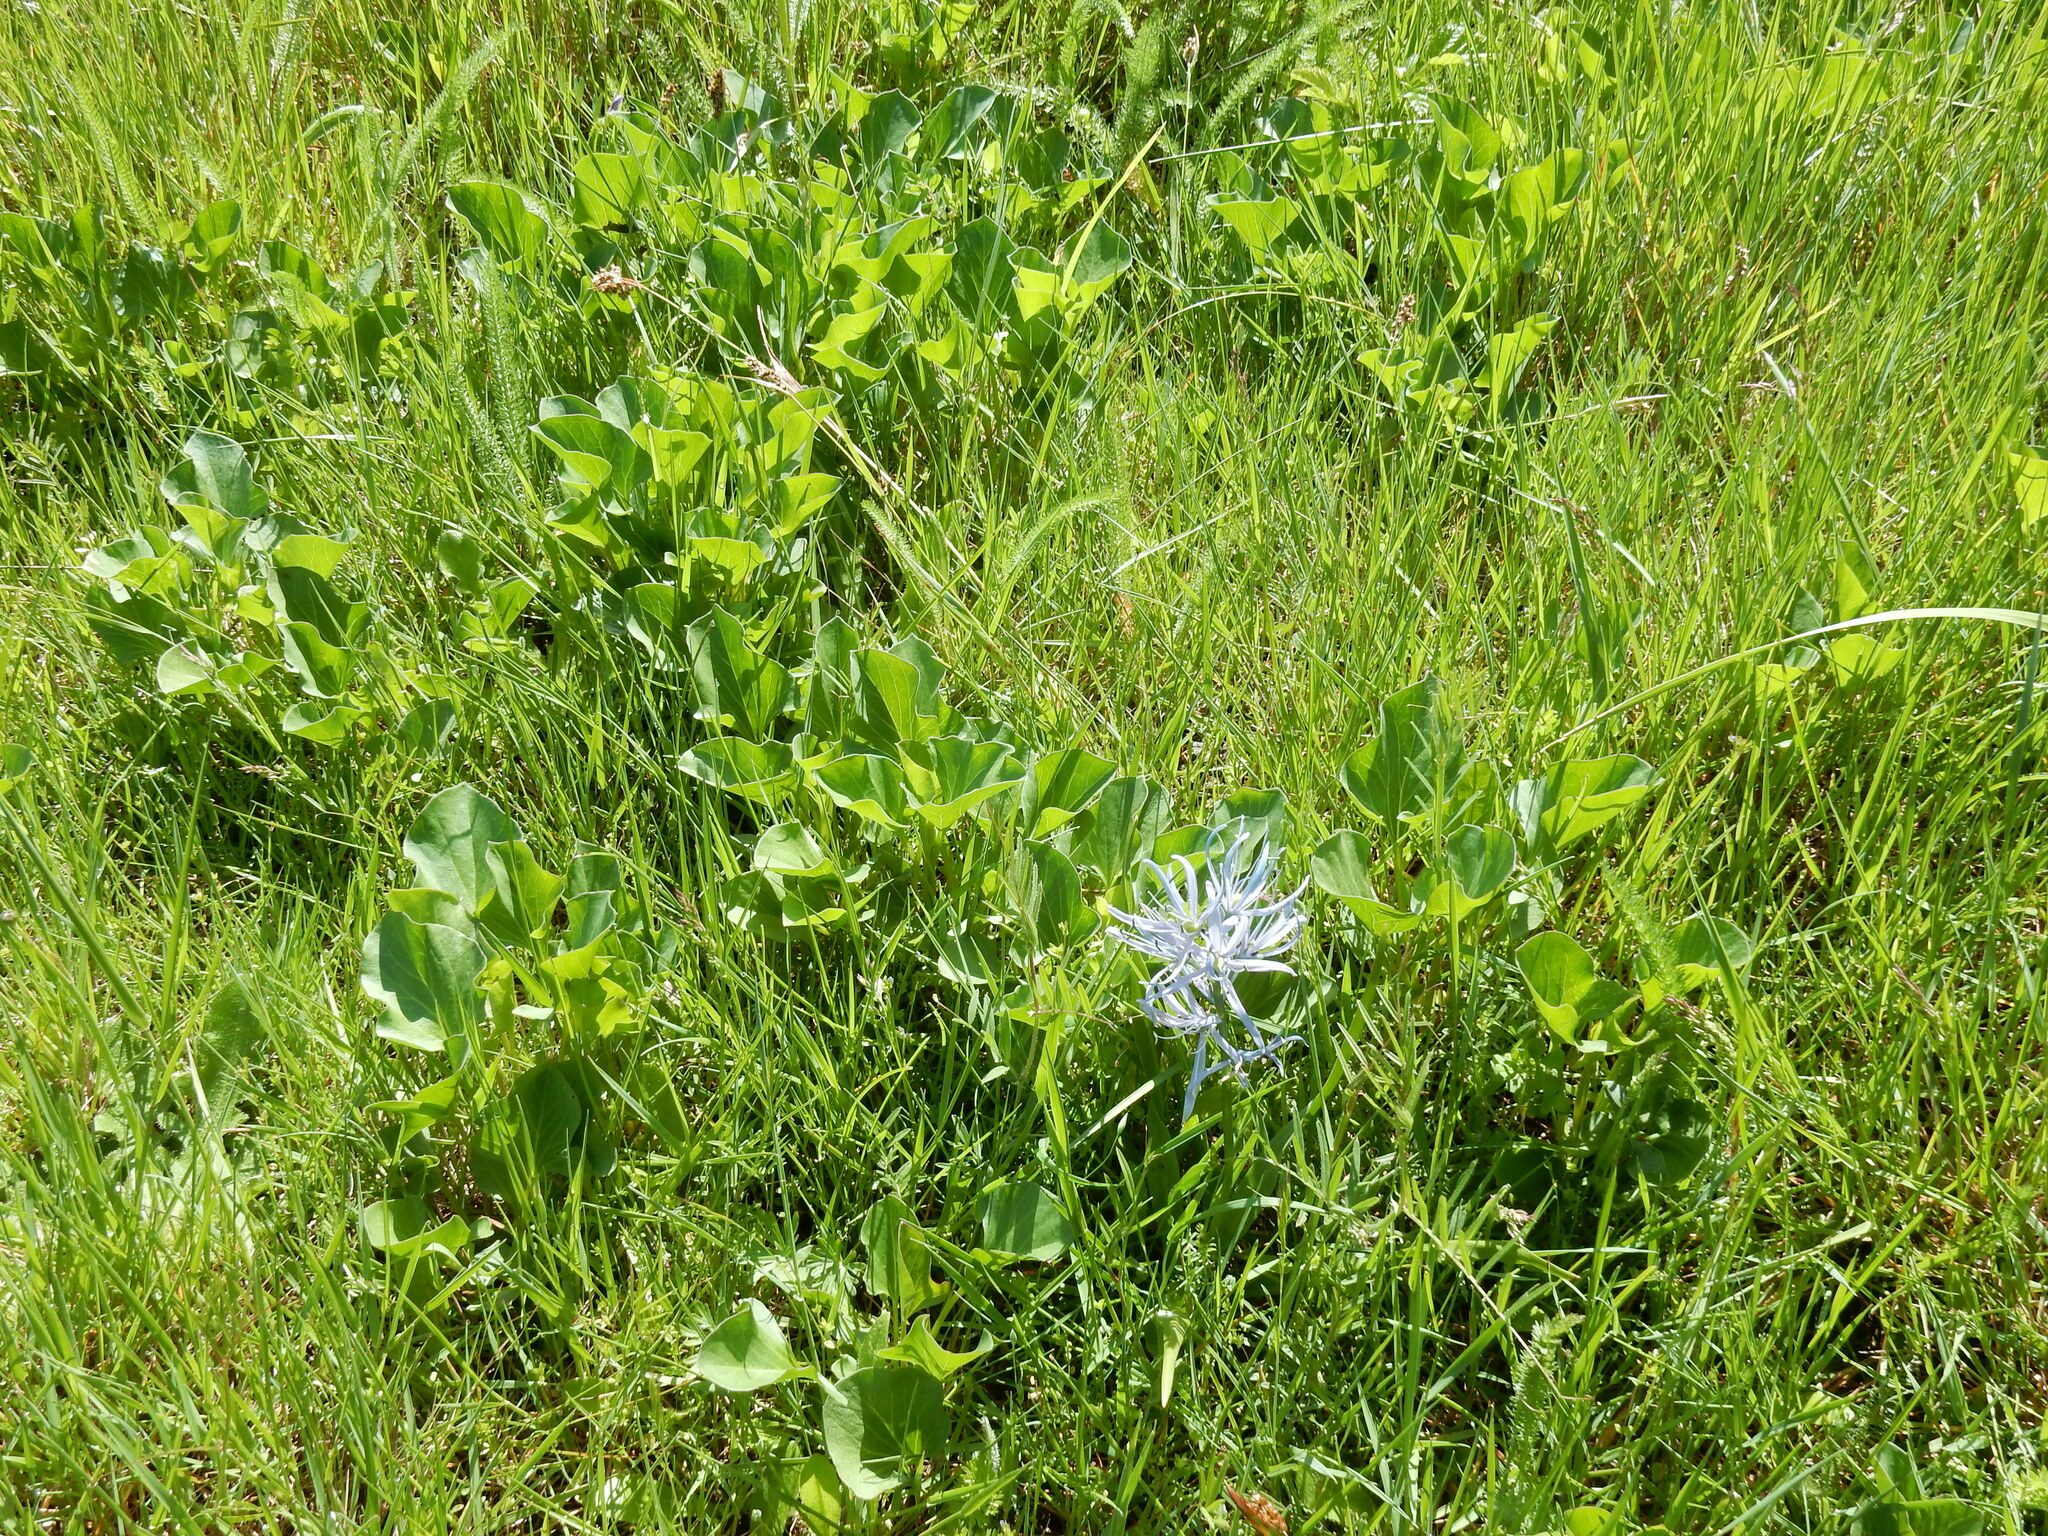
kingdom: Plantae
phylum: Tracheophyta
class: Liliopsida
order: Asparagales
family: Asparagaceae
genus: Camassia
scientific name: Camassia quamash
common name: Common camas
